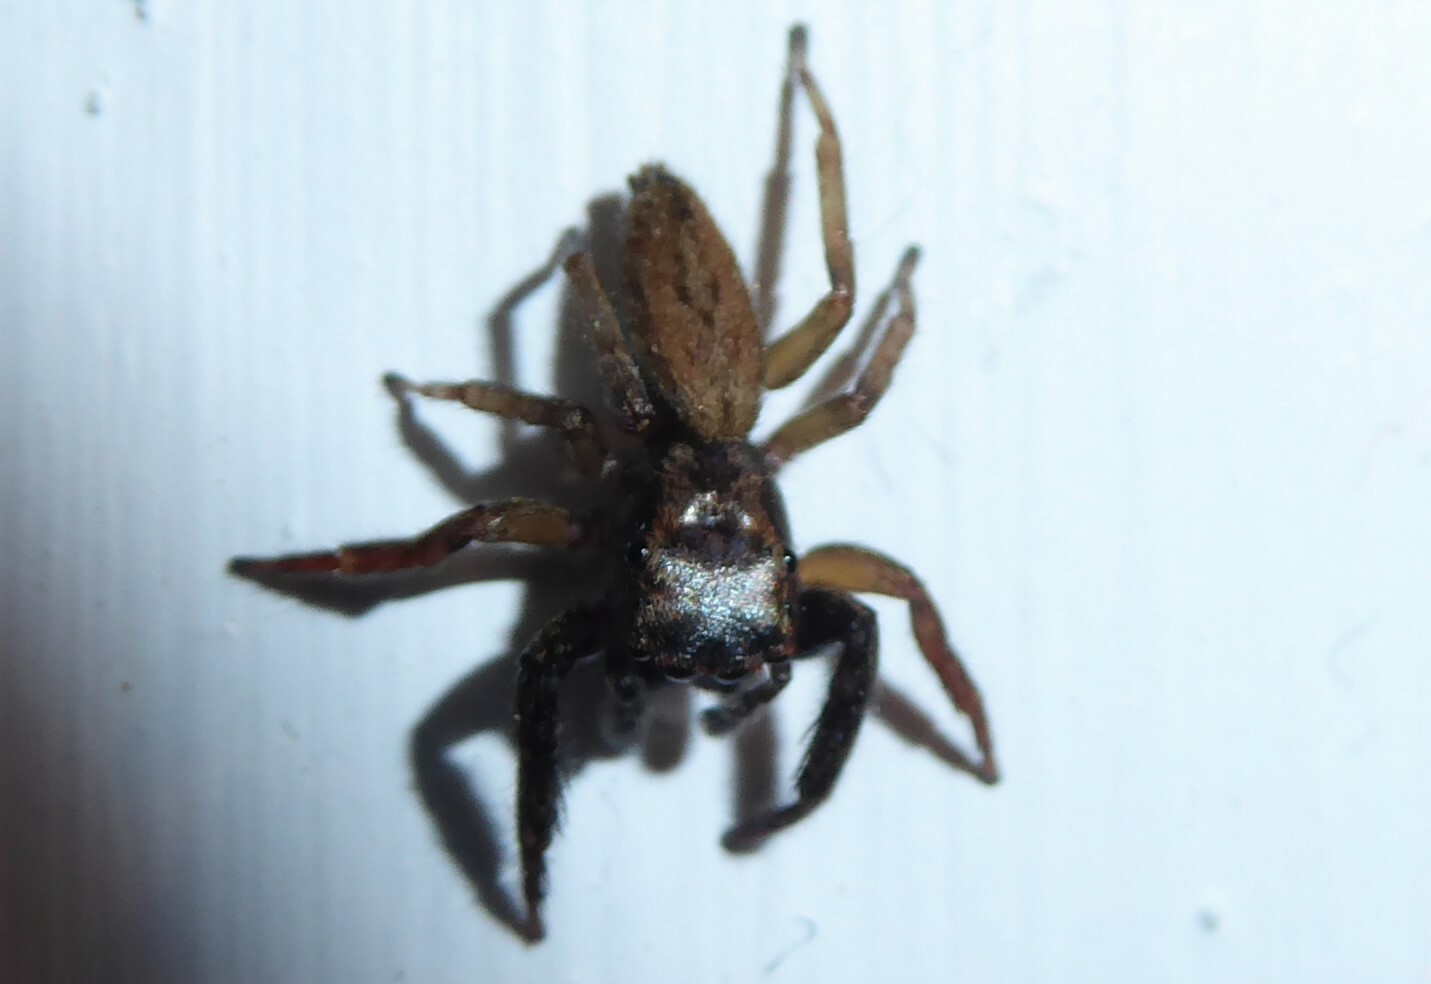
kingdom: Animalia
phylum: Arthropoda
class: Arachnida
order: Araneae
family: Salticidae
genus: Trite
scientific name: Trite auricoma
